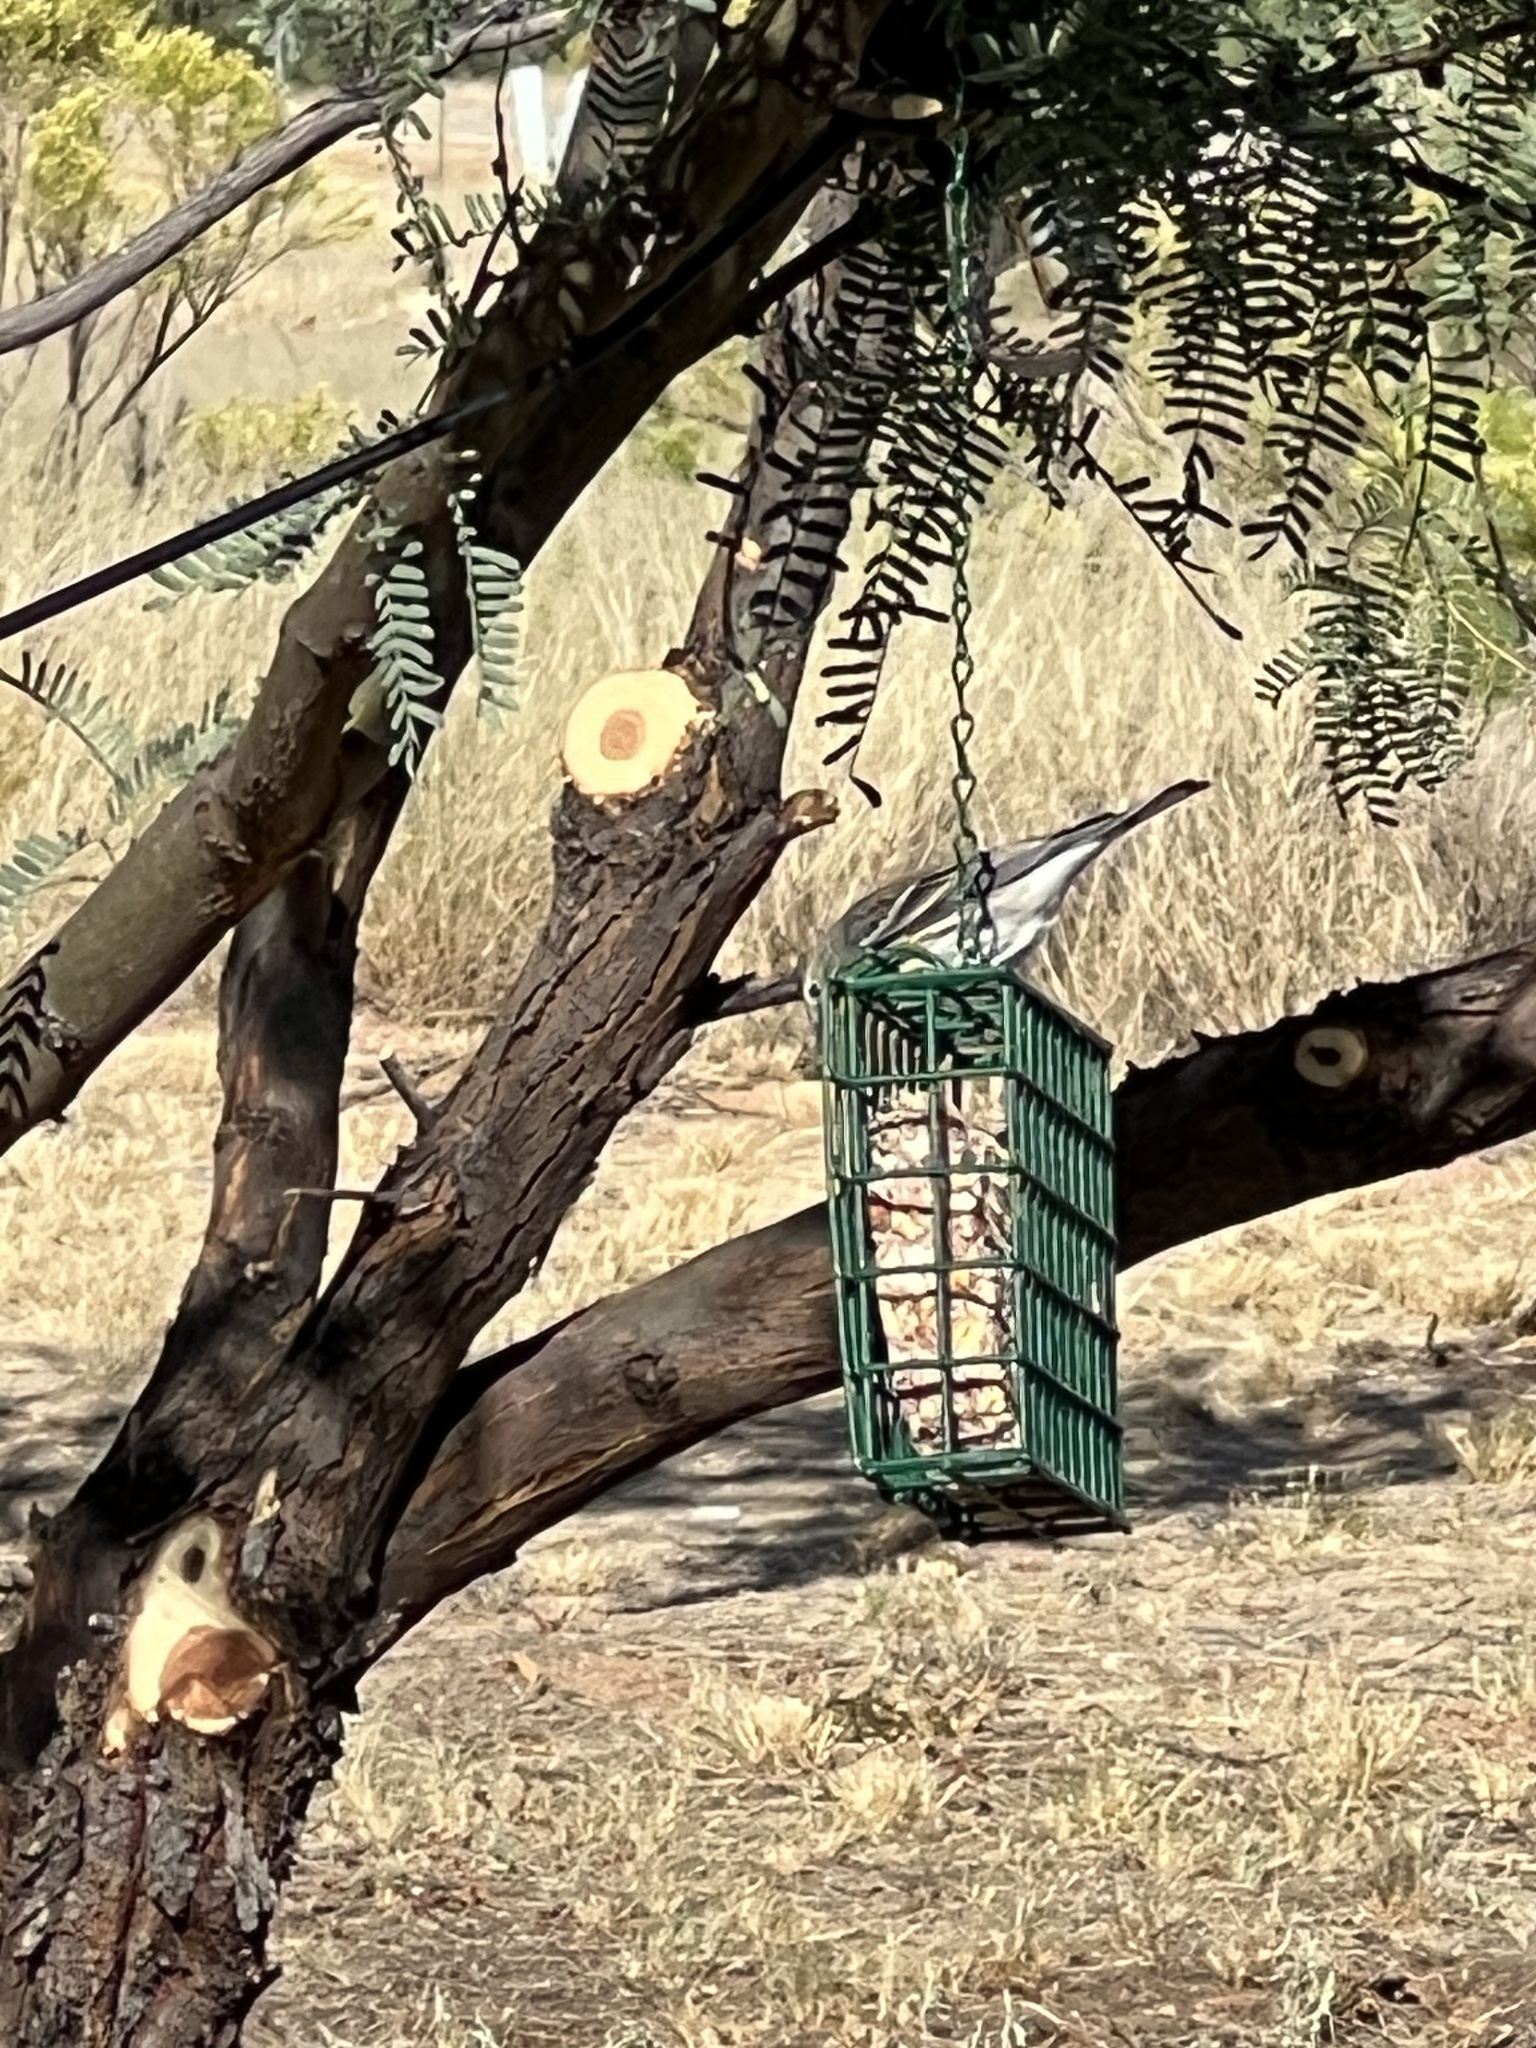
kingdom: Animalia
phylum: Chordata
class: Aves
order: Passeriformes
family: Parulidae
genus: Setophaga
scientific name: Setophaga coronata
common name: Myrtle warbler
